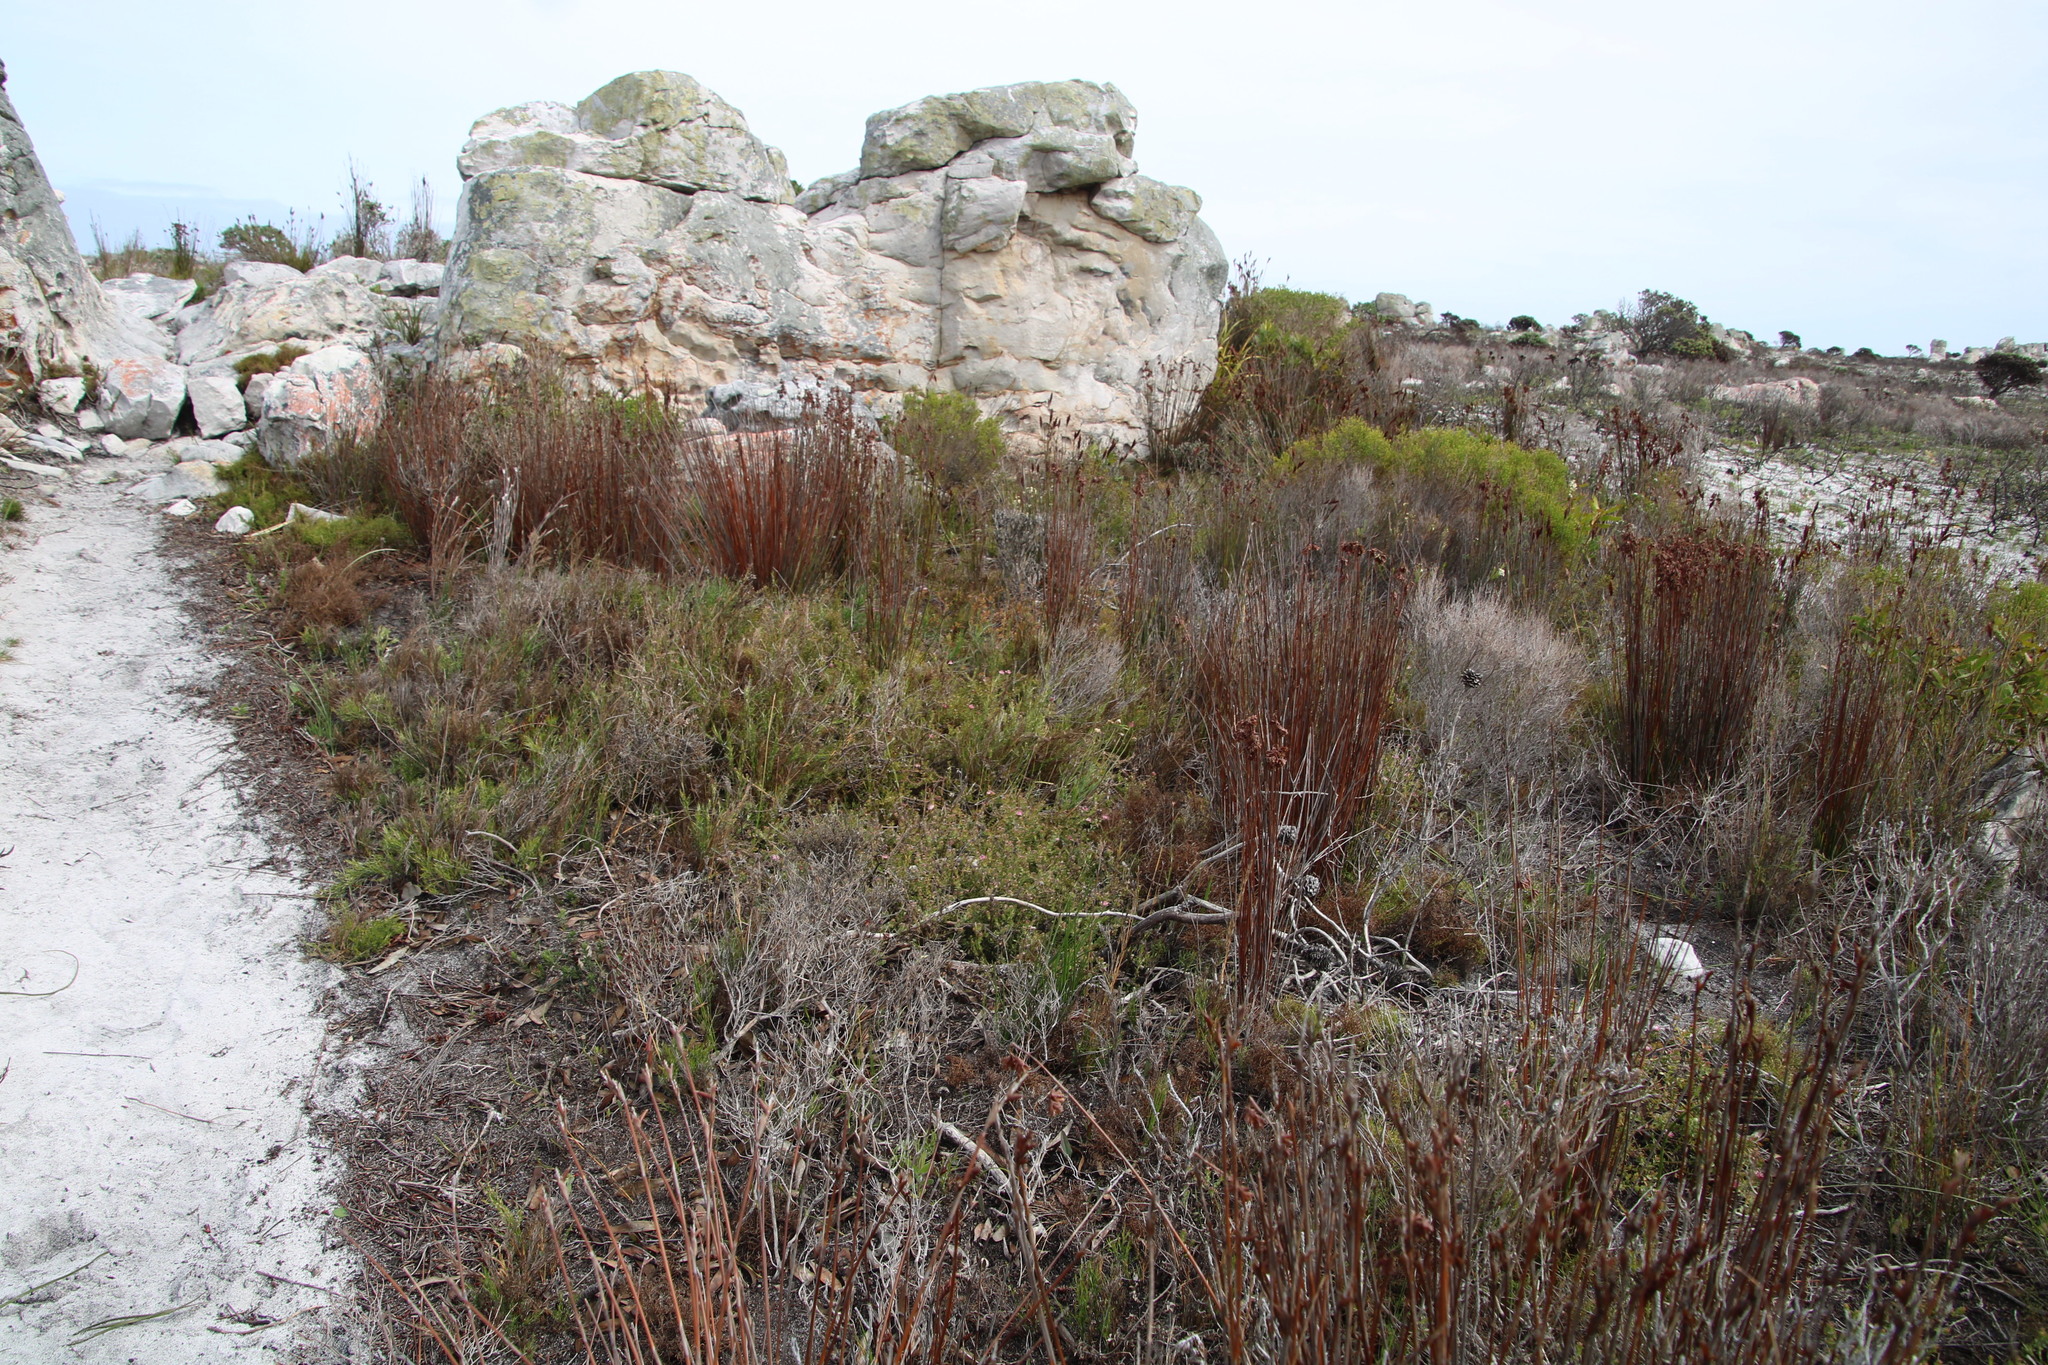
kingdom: Plantae
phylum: Tracheophyta
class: Magnoliopsida
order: Proteales
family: Proteaceae
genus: Diastella
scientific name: Diastella divaricata
